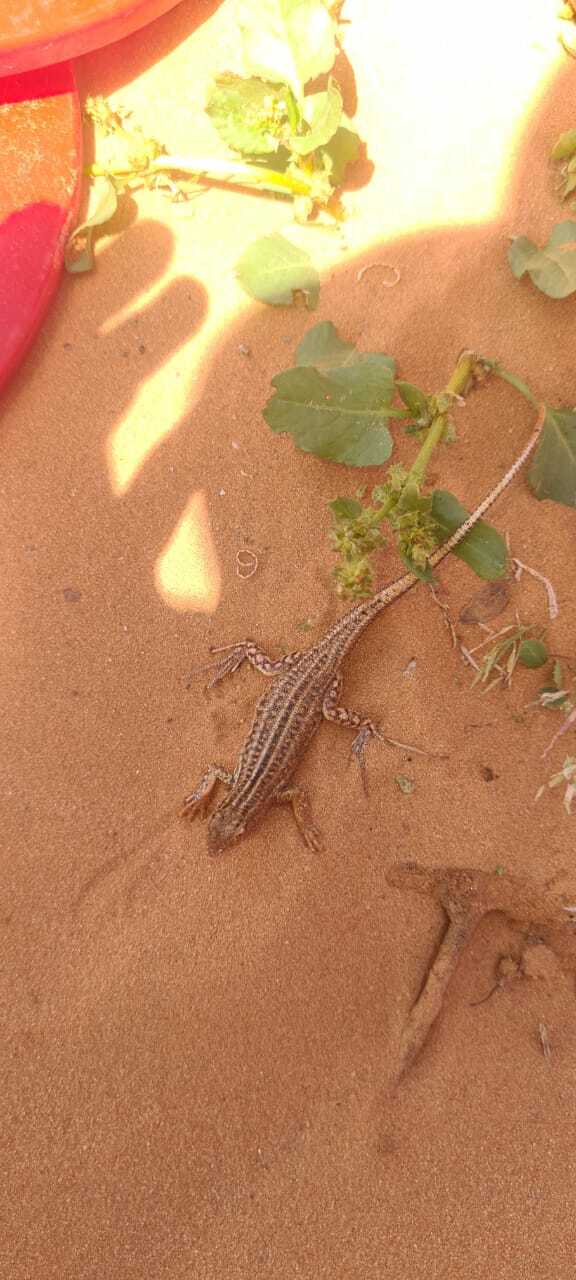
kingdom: Animalia
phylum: Chordata
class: Squamata
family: Lacertidae
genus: Acanthodactylus
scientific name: Acanthodactylus opheodurus
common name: Arnold's fringe-fingered lizard
